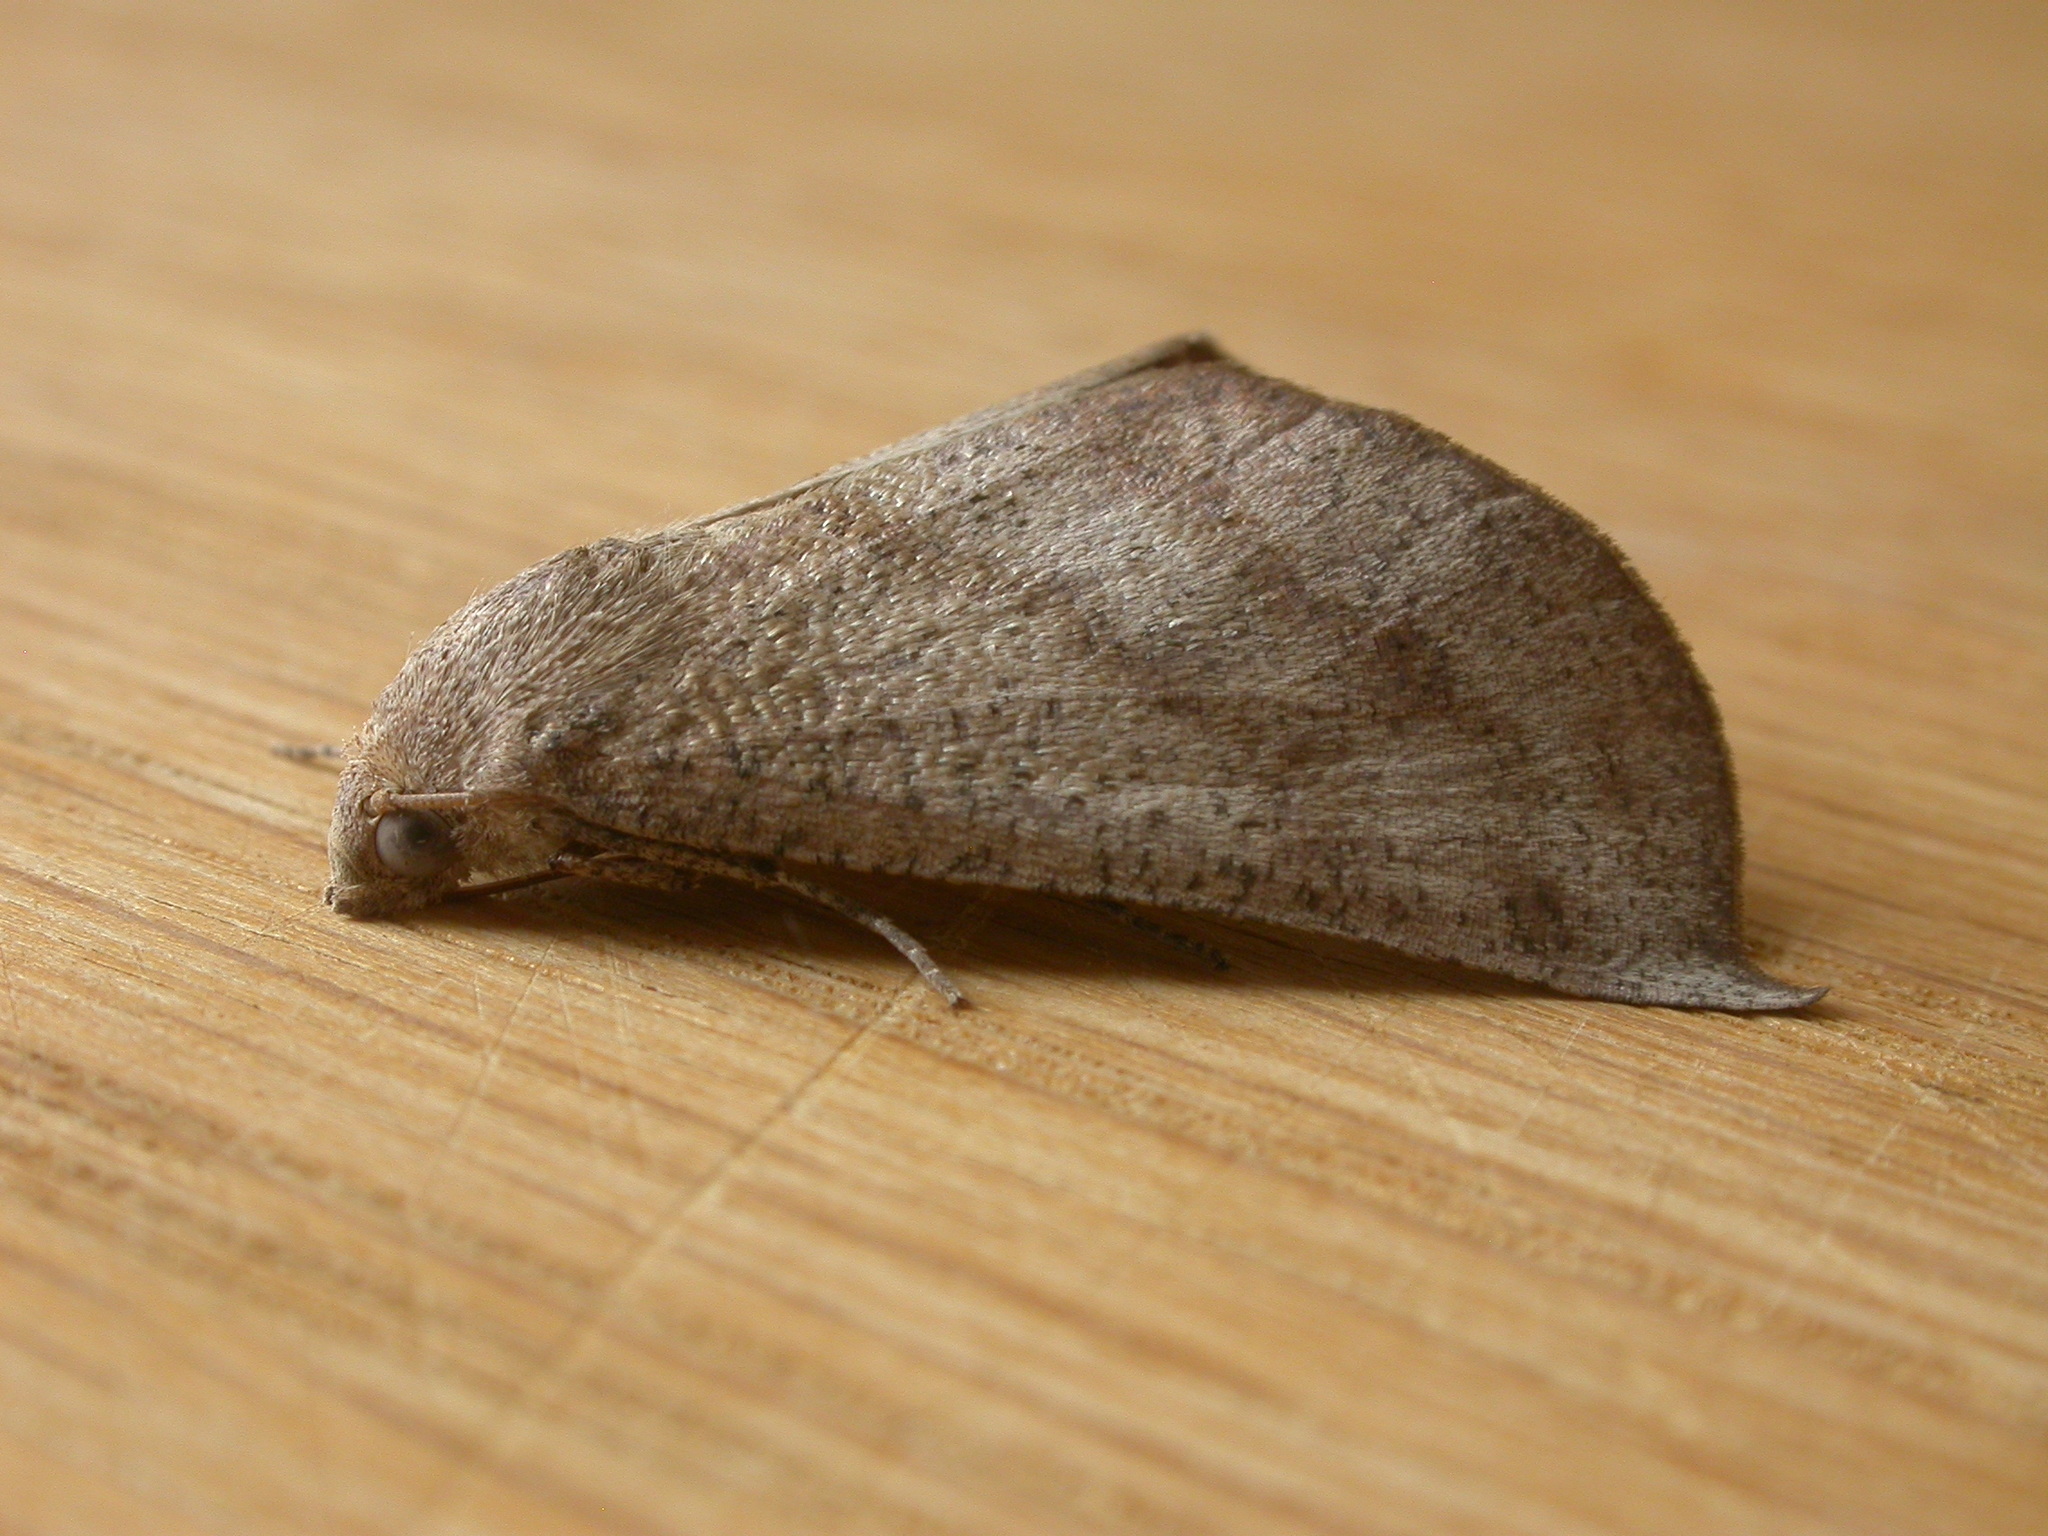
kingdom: Animalia
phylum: Arthropoda
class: Insecta
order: Lepidoptera
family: Geometridae
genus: Mnesampela
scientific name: Mnesampela lenaea
